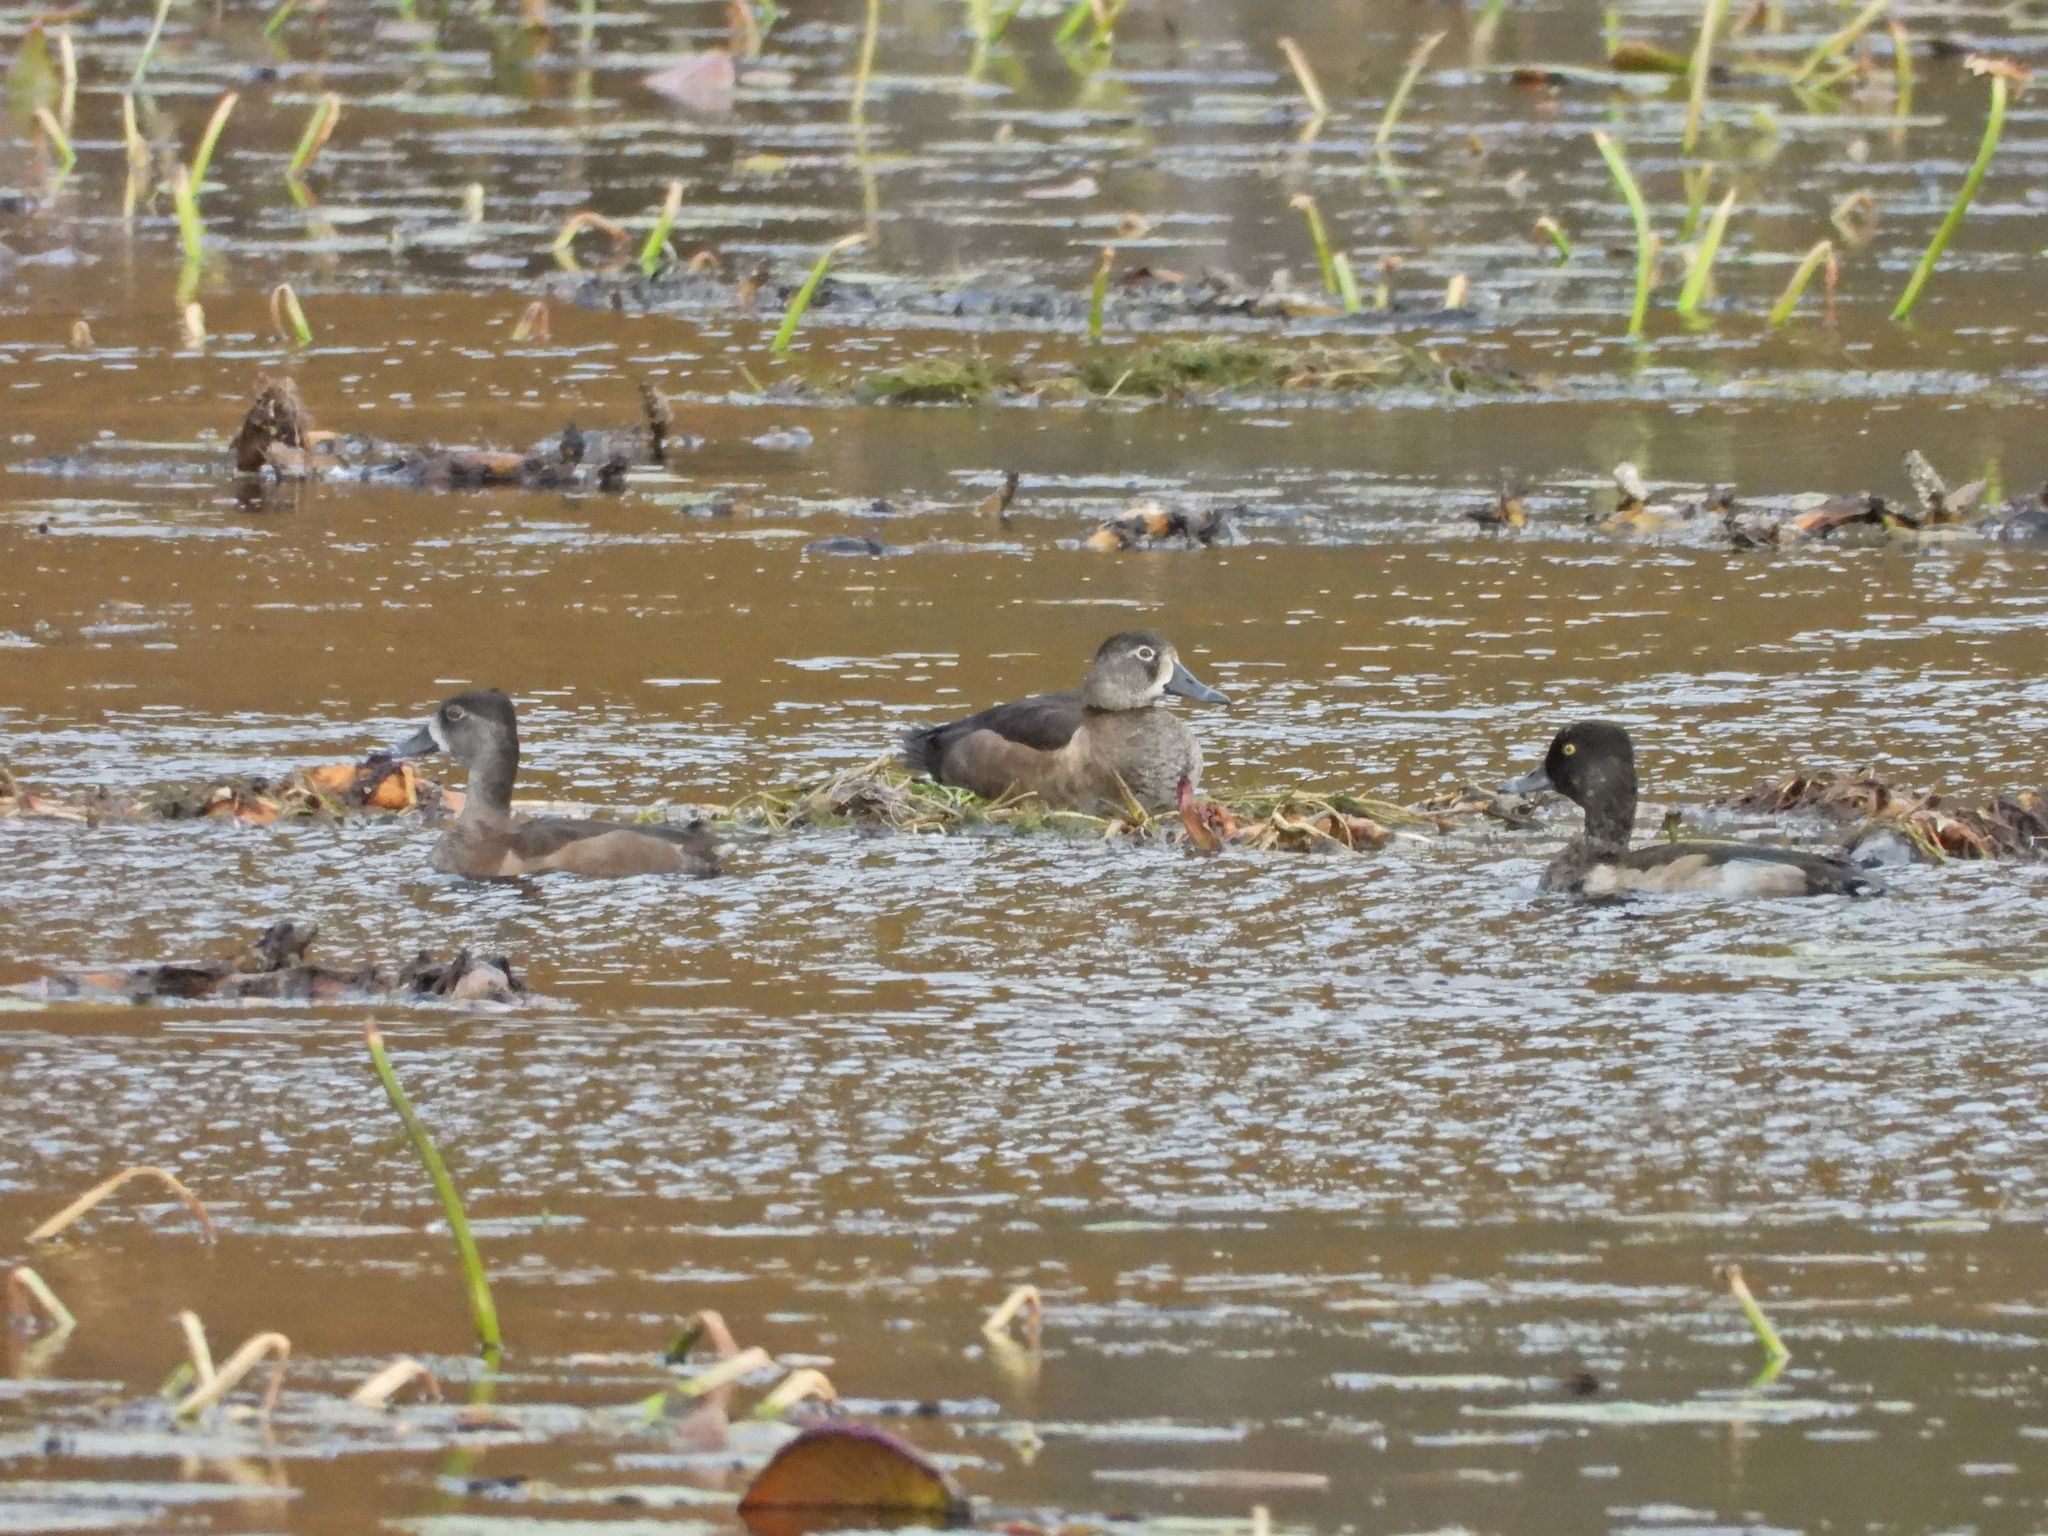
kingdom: Animalia
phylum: Chordata
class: Aves
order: Anseriformes
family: Anatidae
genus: Aythya
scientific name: Aythya collaris
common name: Ring-necked duck
